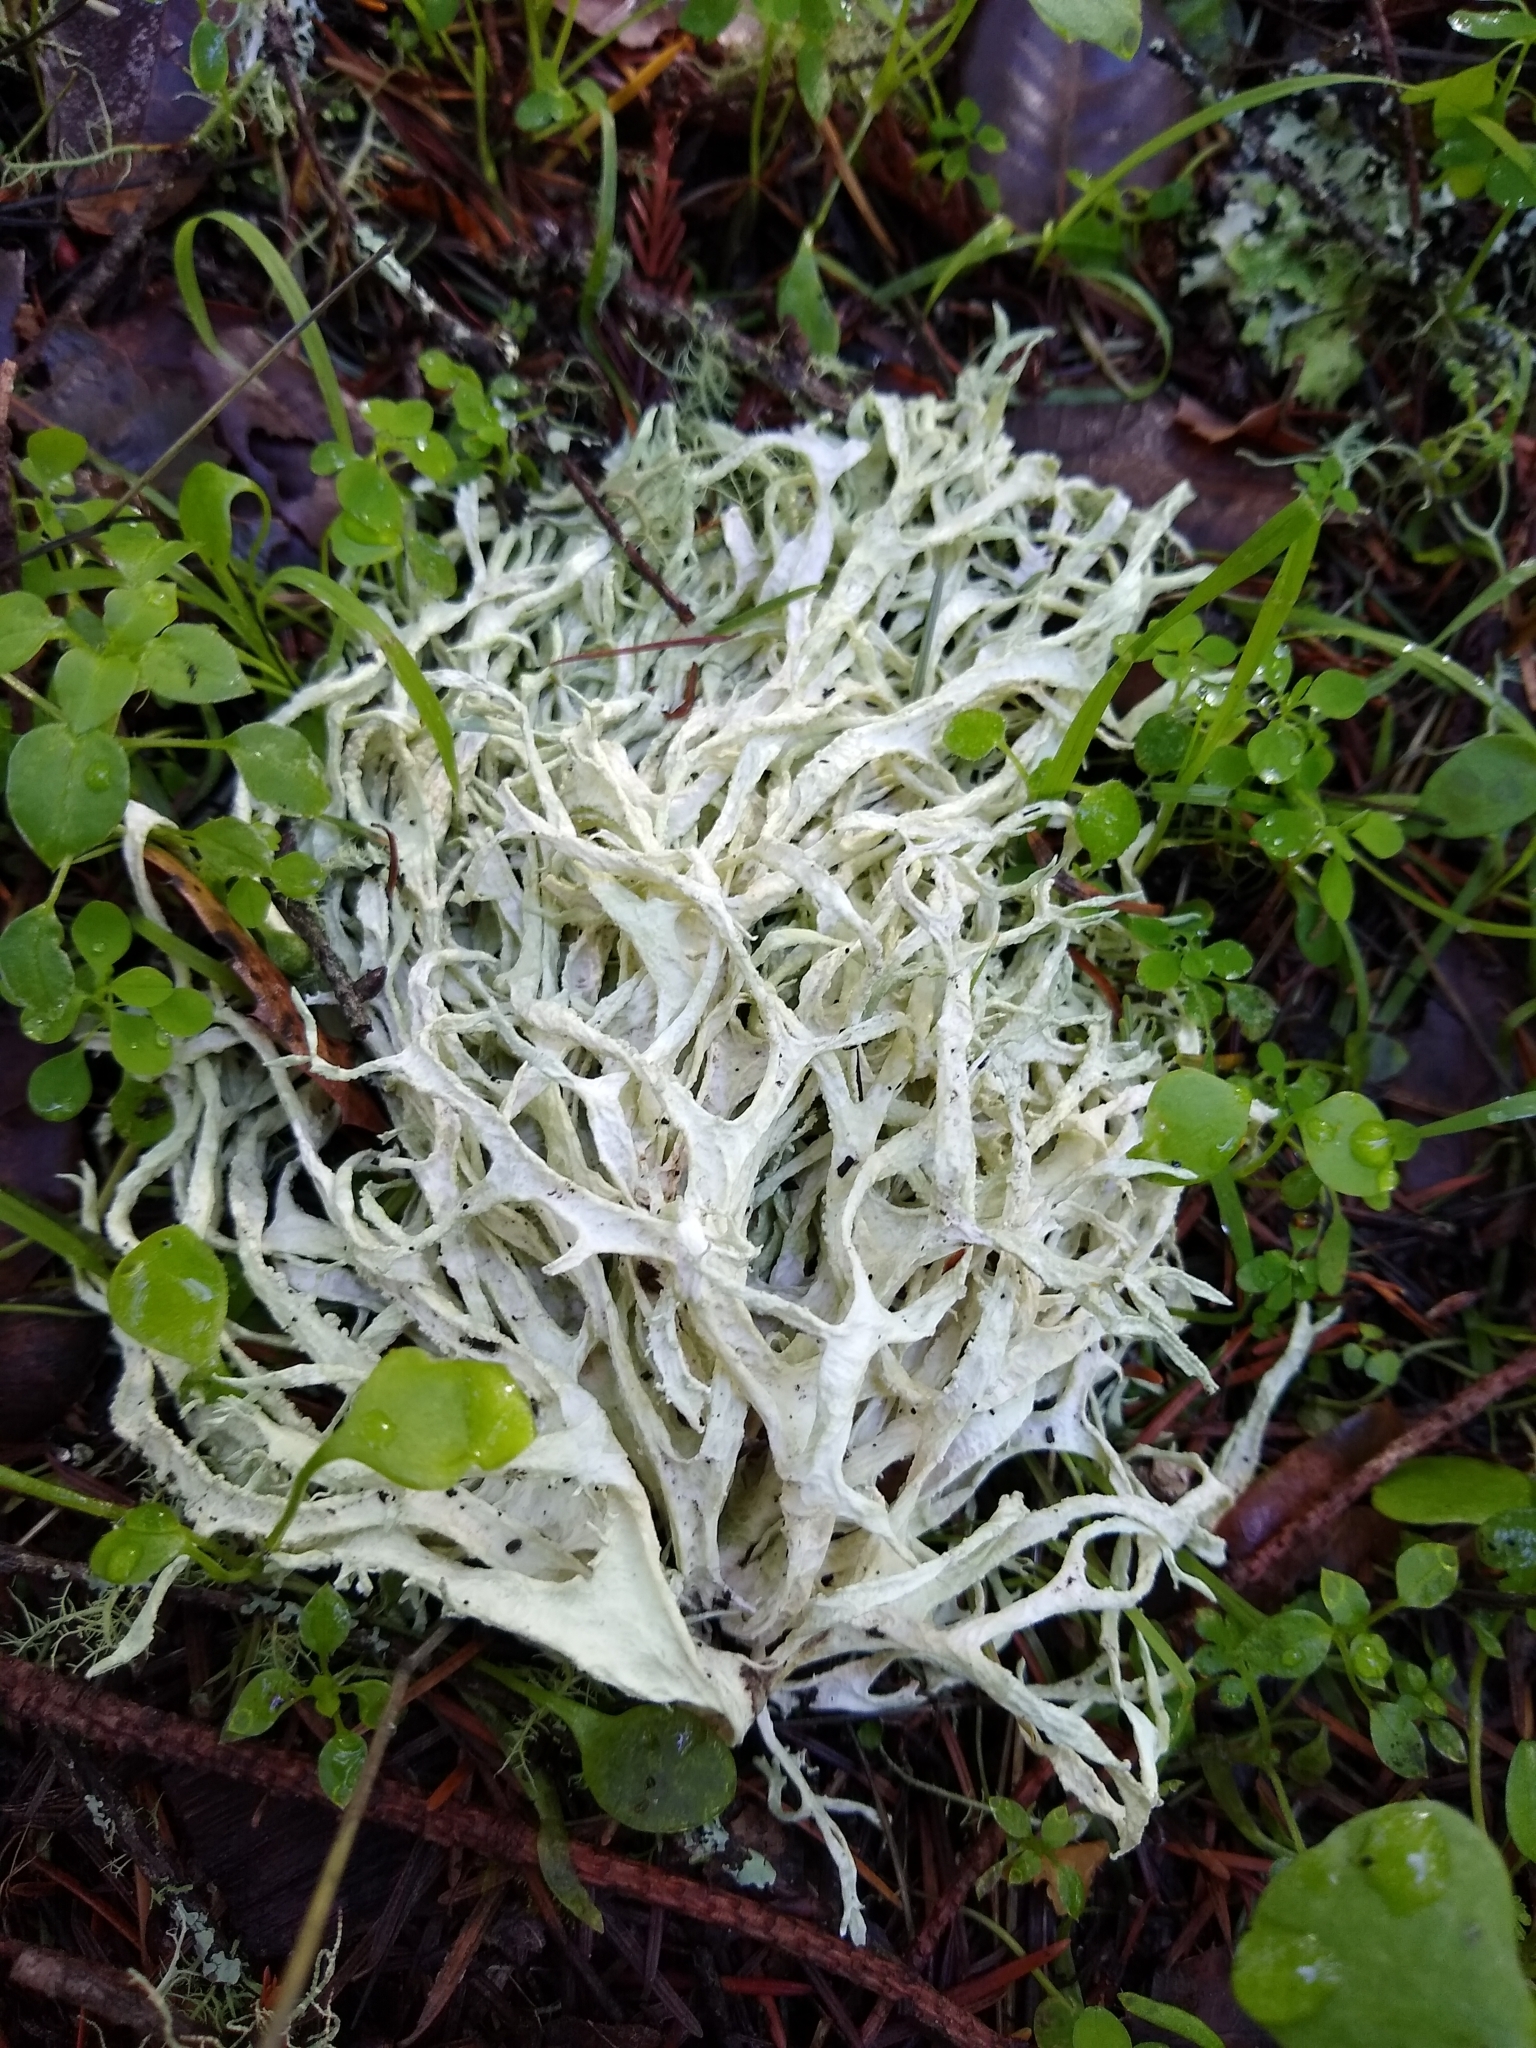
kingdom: Fungi
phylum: Ascomycota
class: Lecanoromycetes
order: Lecanorales
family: Parmeliaceae
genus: Evernia
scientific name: Evernia prunastri
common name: Oak moss
